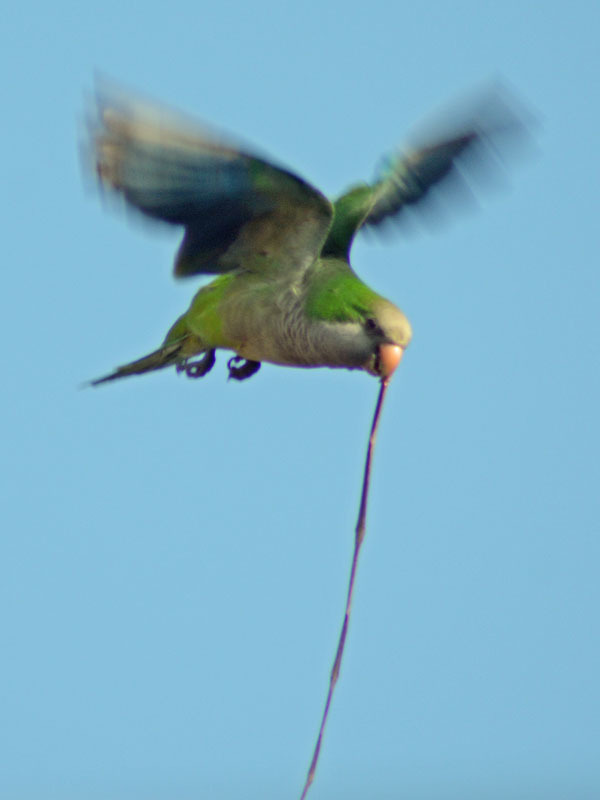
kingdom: Animalia
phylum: Chordata
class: Aves
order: Psittaciformes
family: Psittacidae
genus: Myiopsitta
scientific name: Myiopsitta monachus
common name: Monk parakeet
